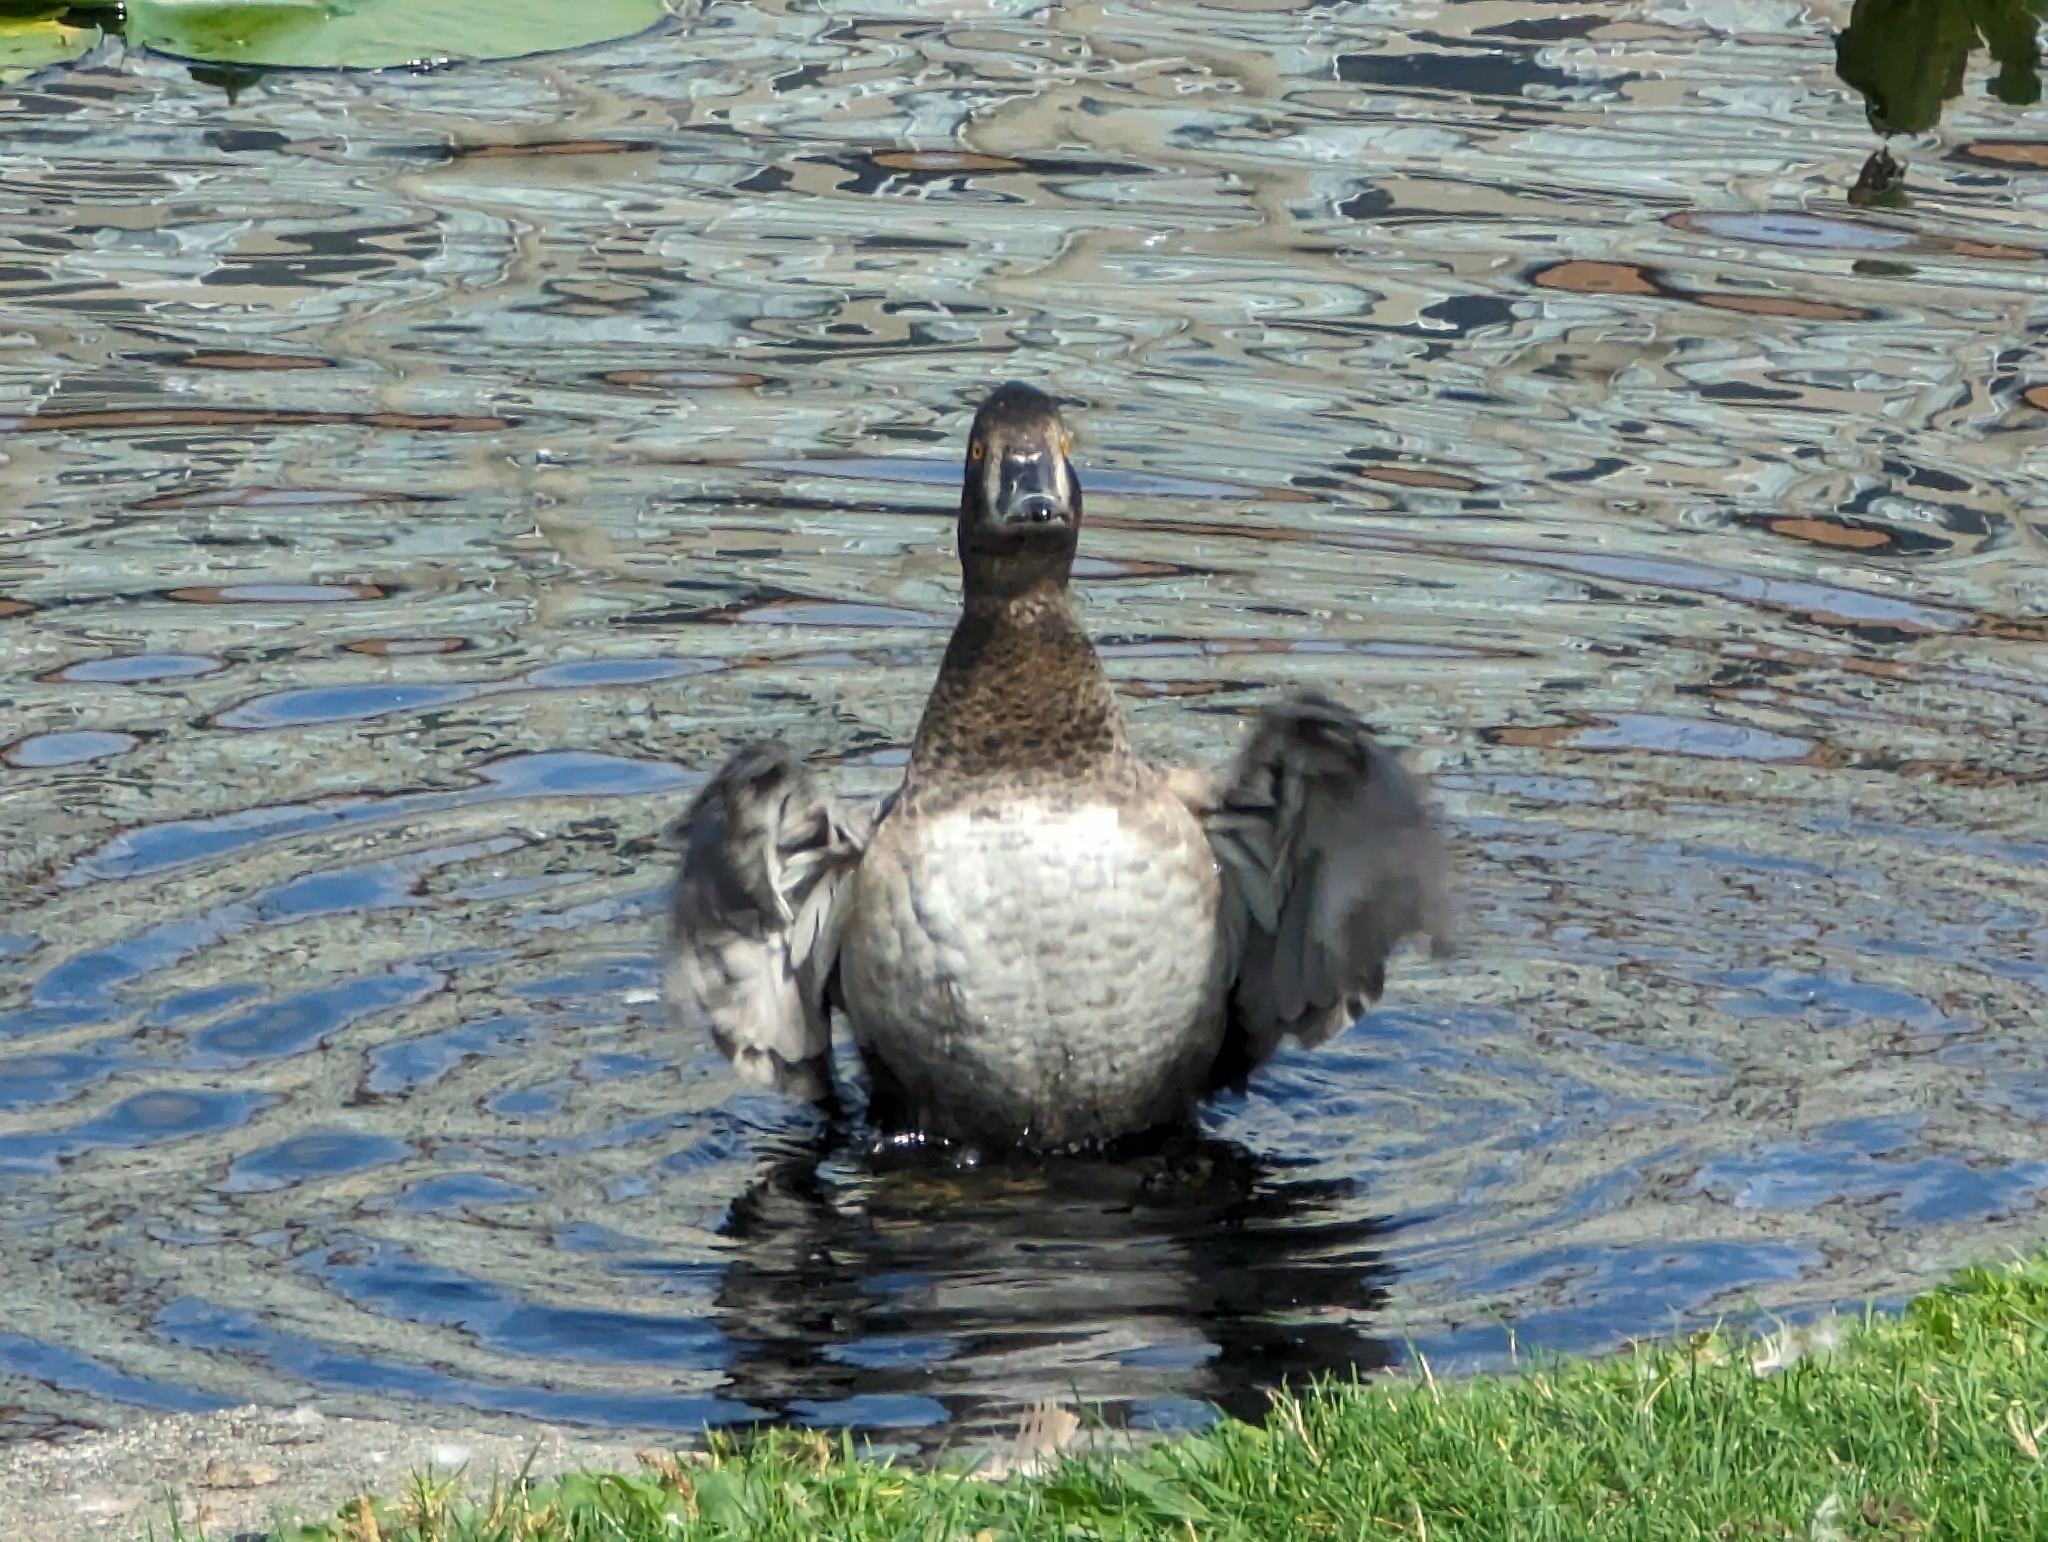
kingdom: Animalia
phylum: Chordata
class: Aves
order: Anseriformes
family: Anatidae
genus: Aythya
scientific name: Aythya collaris
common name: Ring-necked duck
